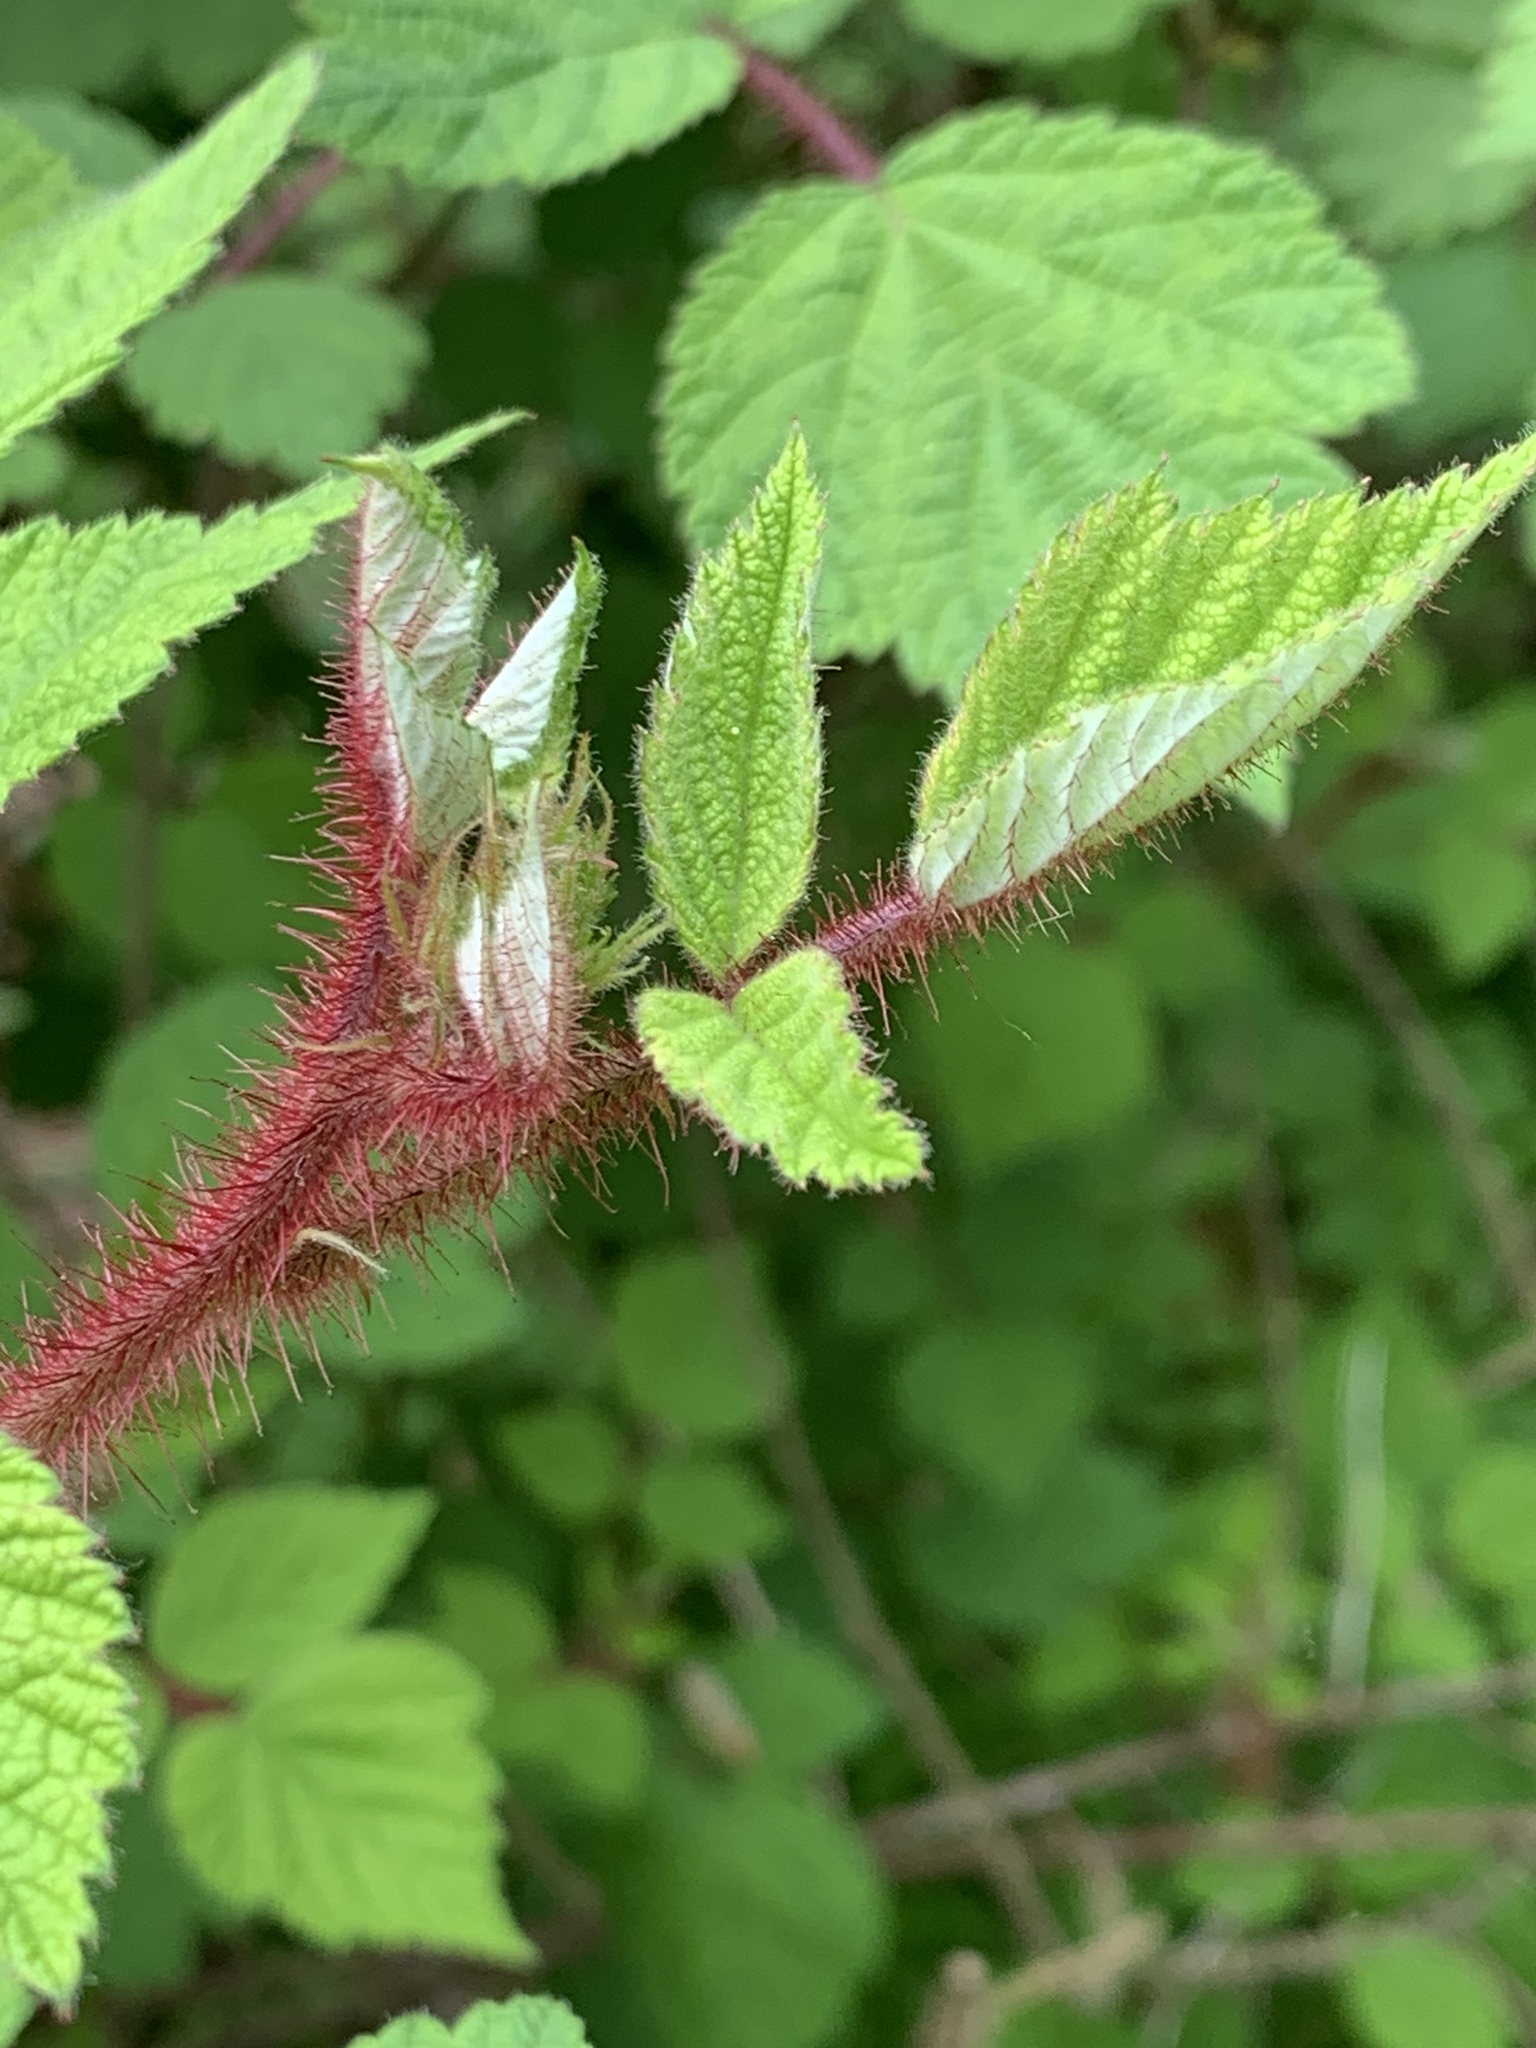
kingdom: Plantae
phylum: Tracheophyta
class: Magnoliopsida
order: Rosales
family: Rosaceae
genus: Rubus
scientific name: Rubus phoenicolasius
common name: Japanese wineberry
